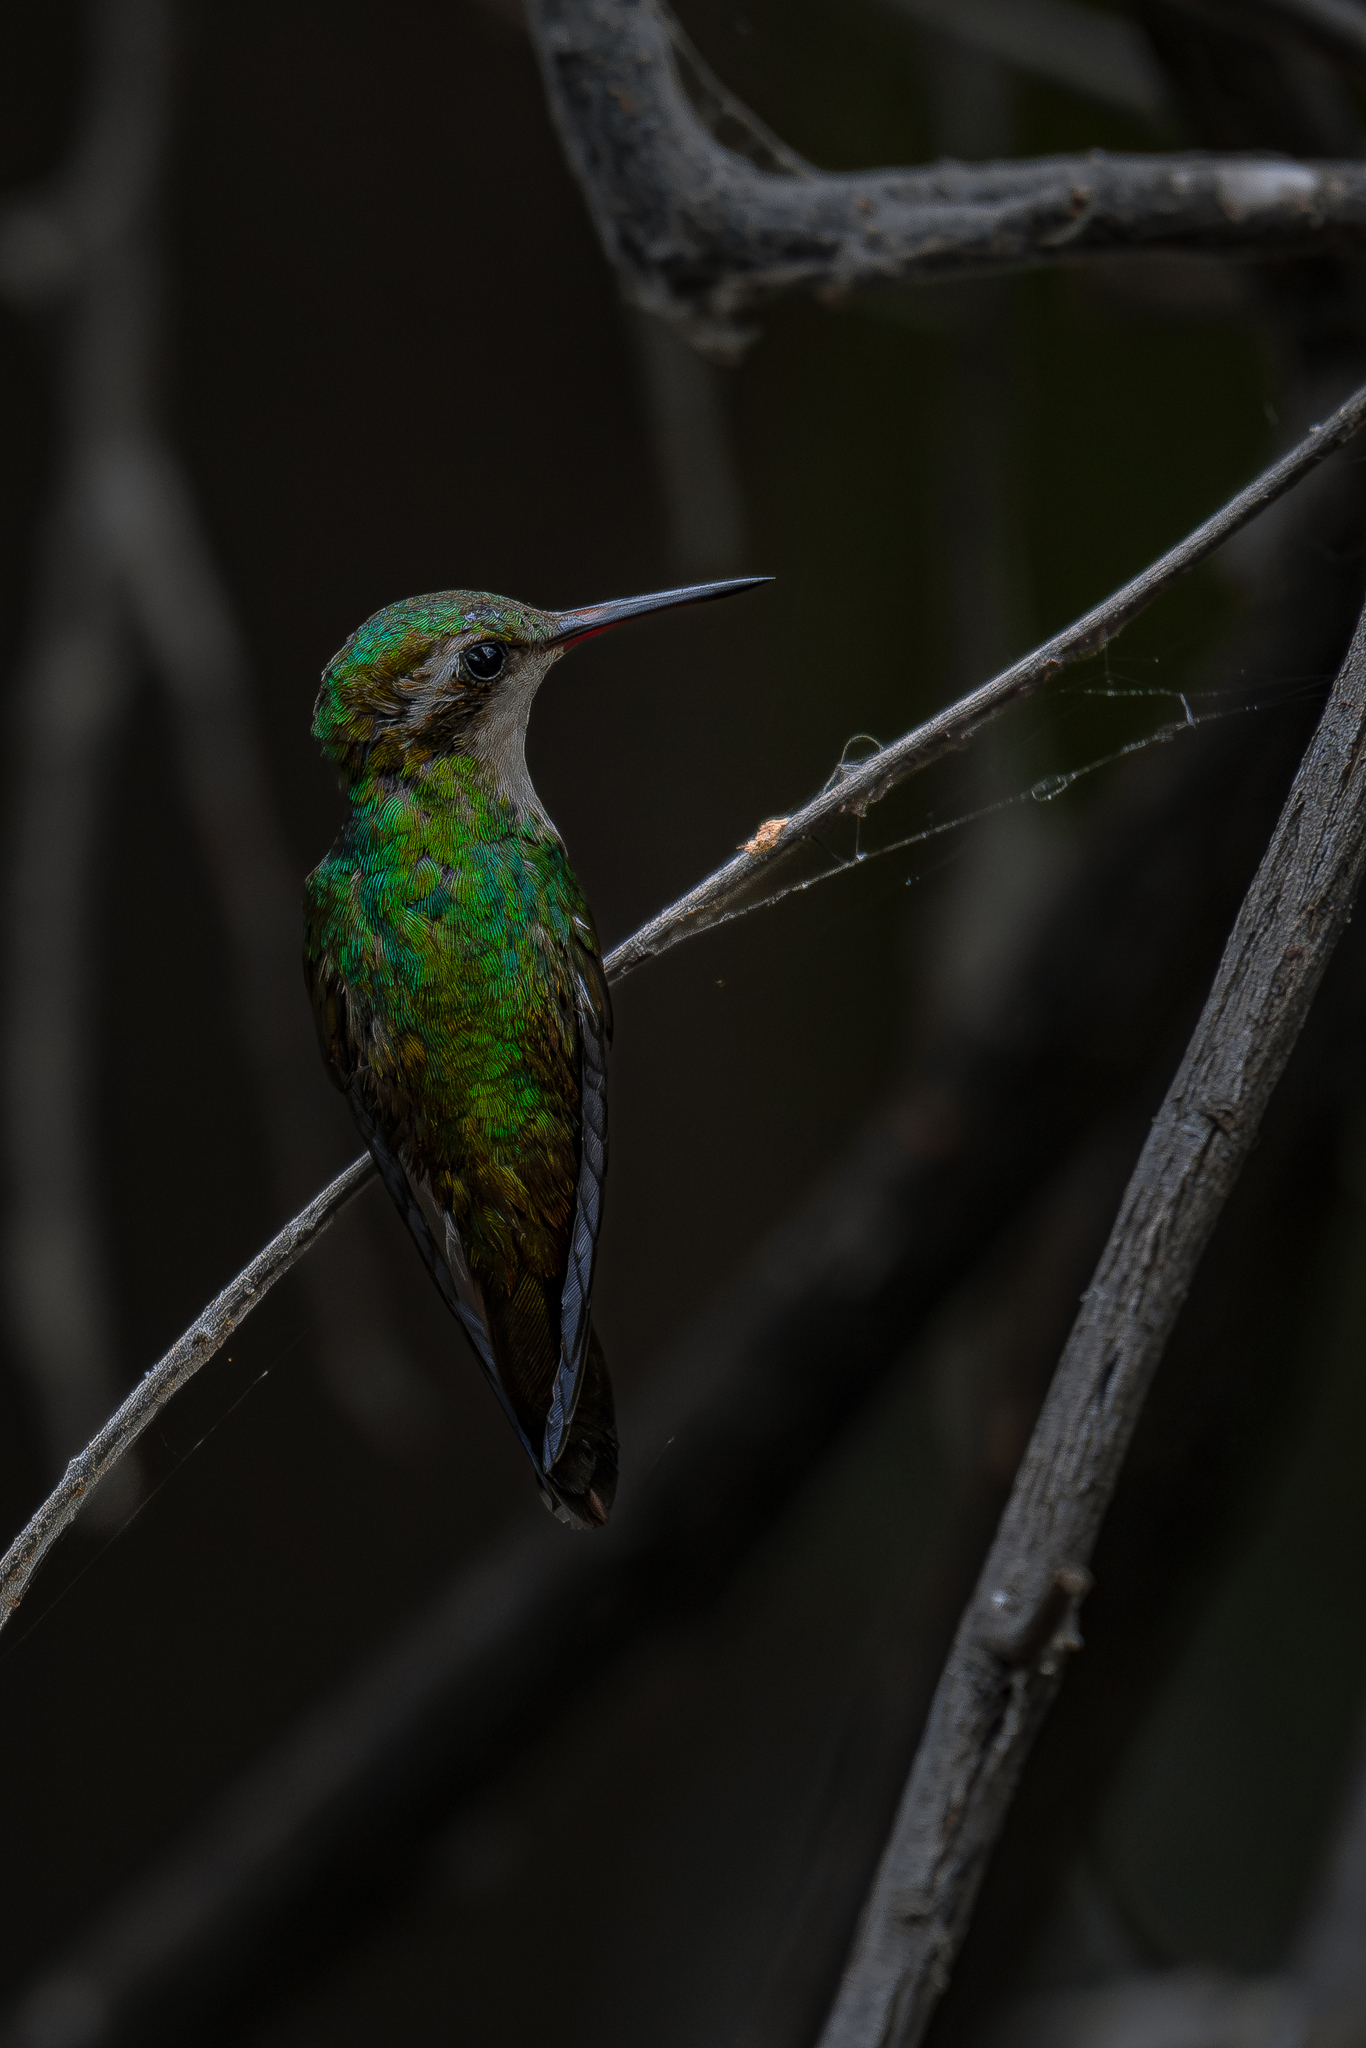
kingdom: Animalia
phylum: Chordata
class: Aves
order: Apodiformes
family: Trochilidae
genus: Cynanthus
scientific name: Cynanthus canivetii
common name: Canivet's emerald
